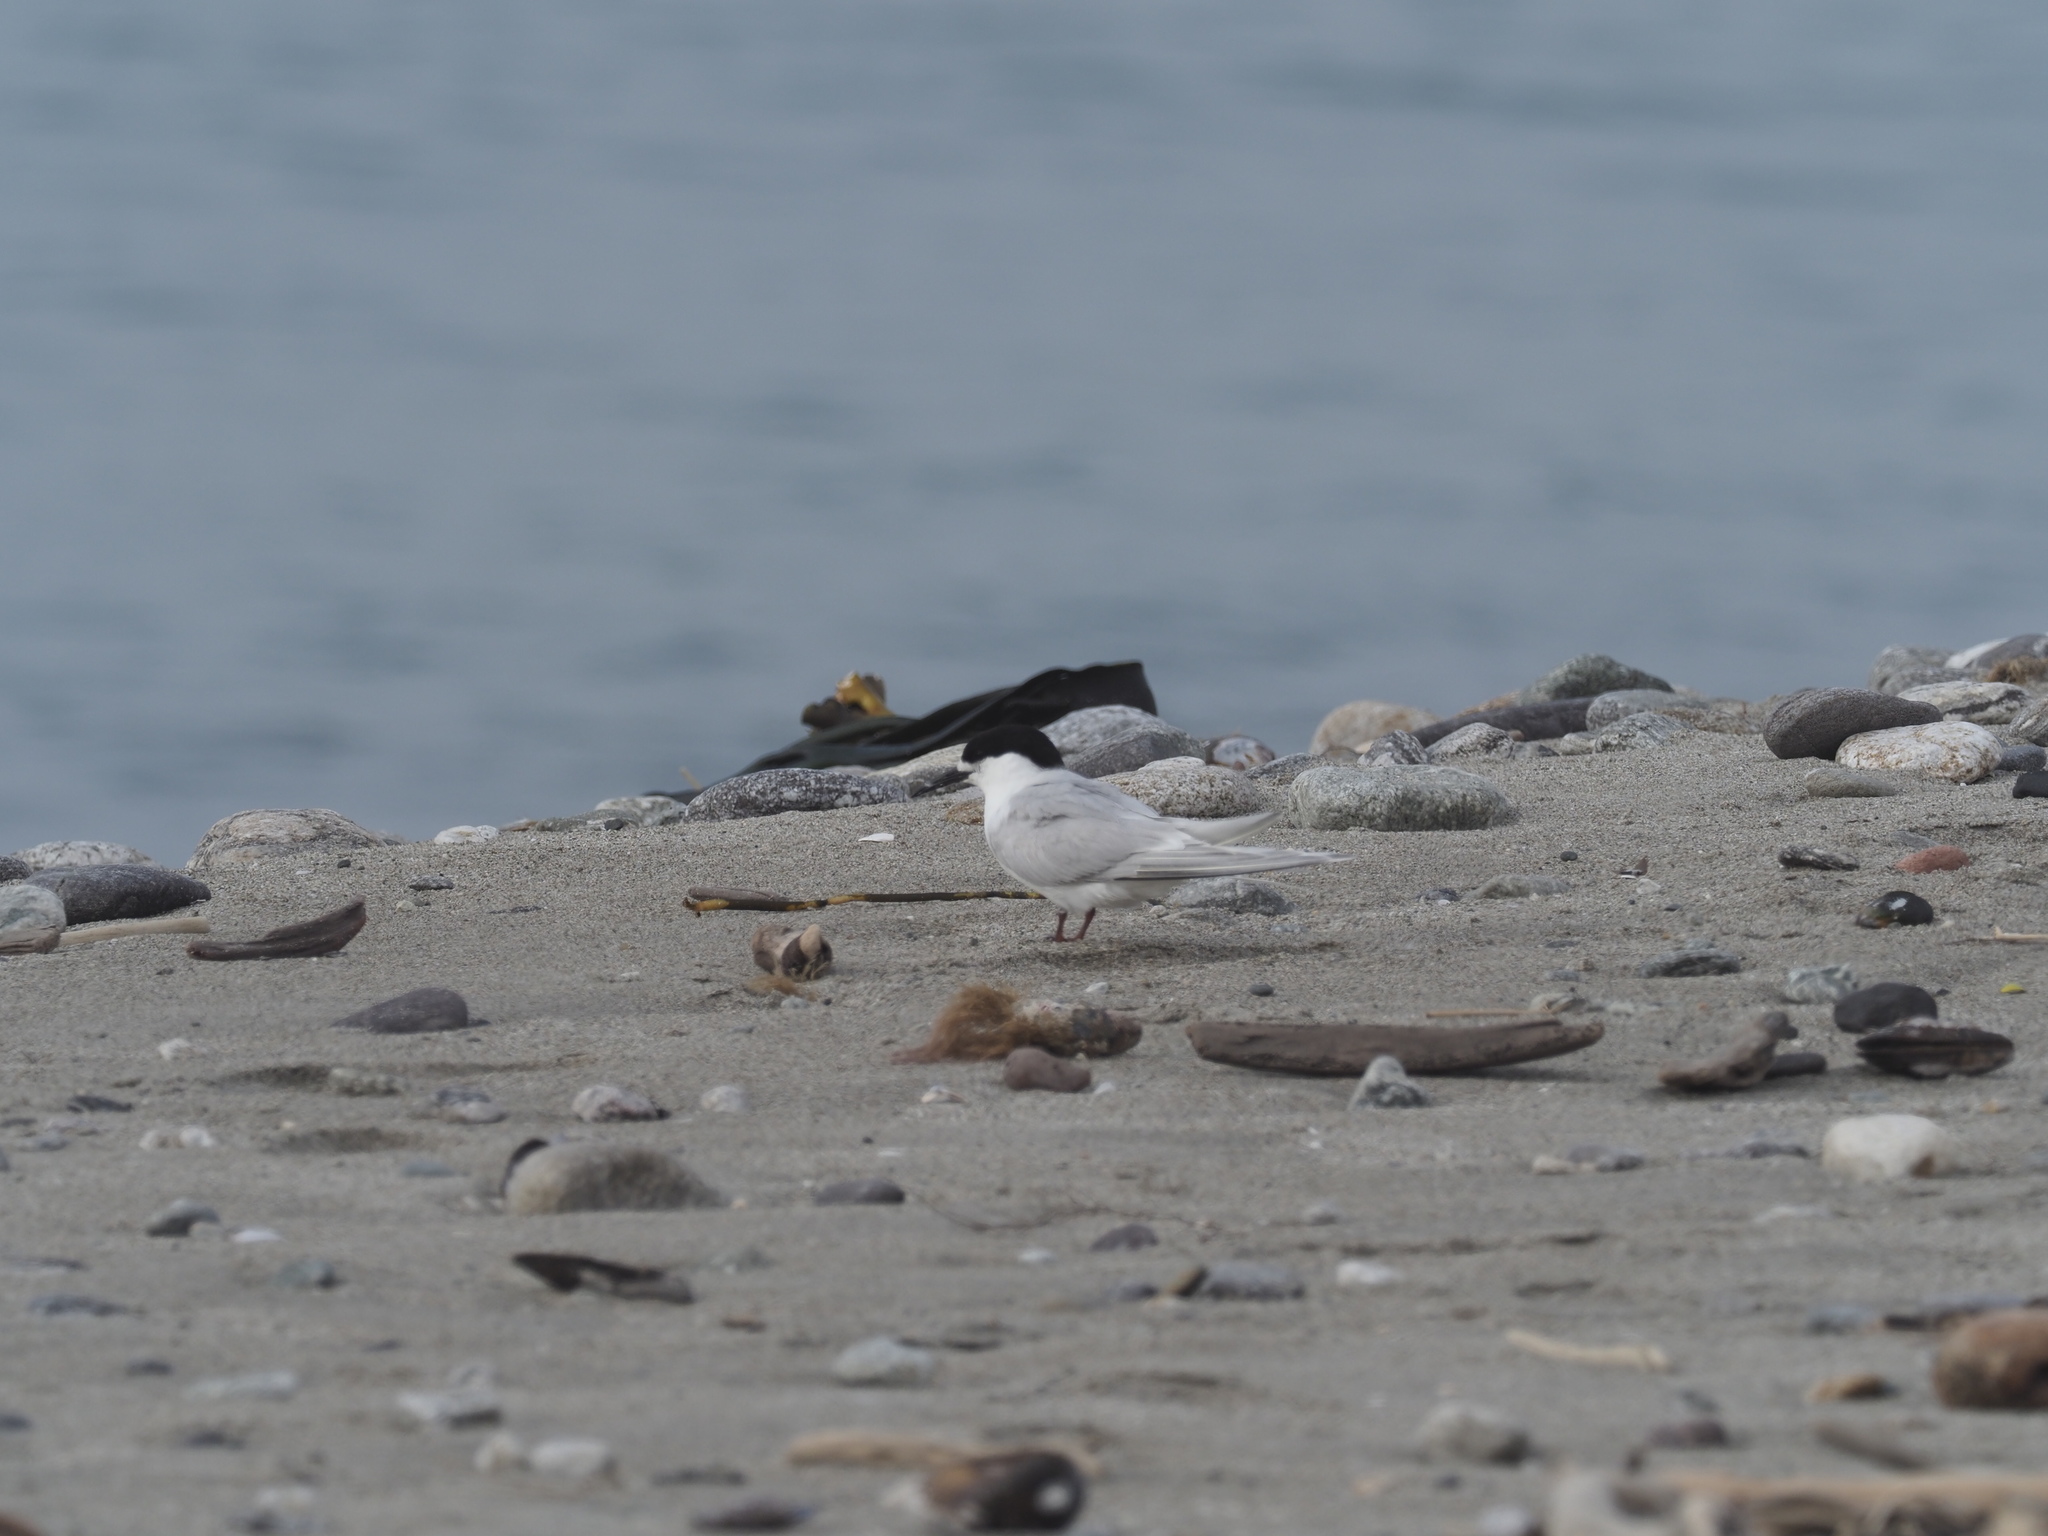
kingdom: Animalia
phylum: Chordata
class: Aves
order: Charadriiformes
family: Laridae
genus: Sterna
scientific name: Sterna striata
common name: White-fronted tern
